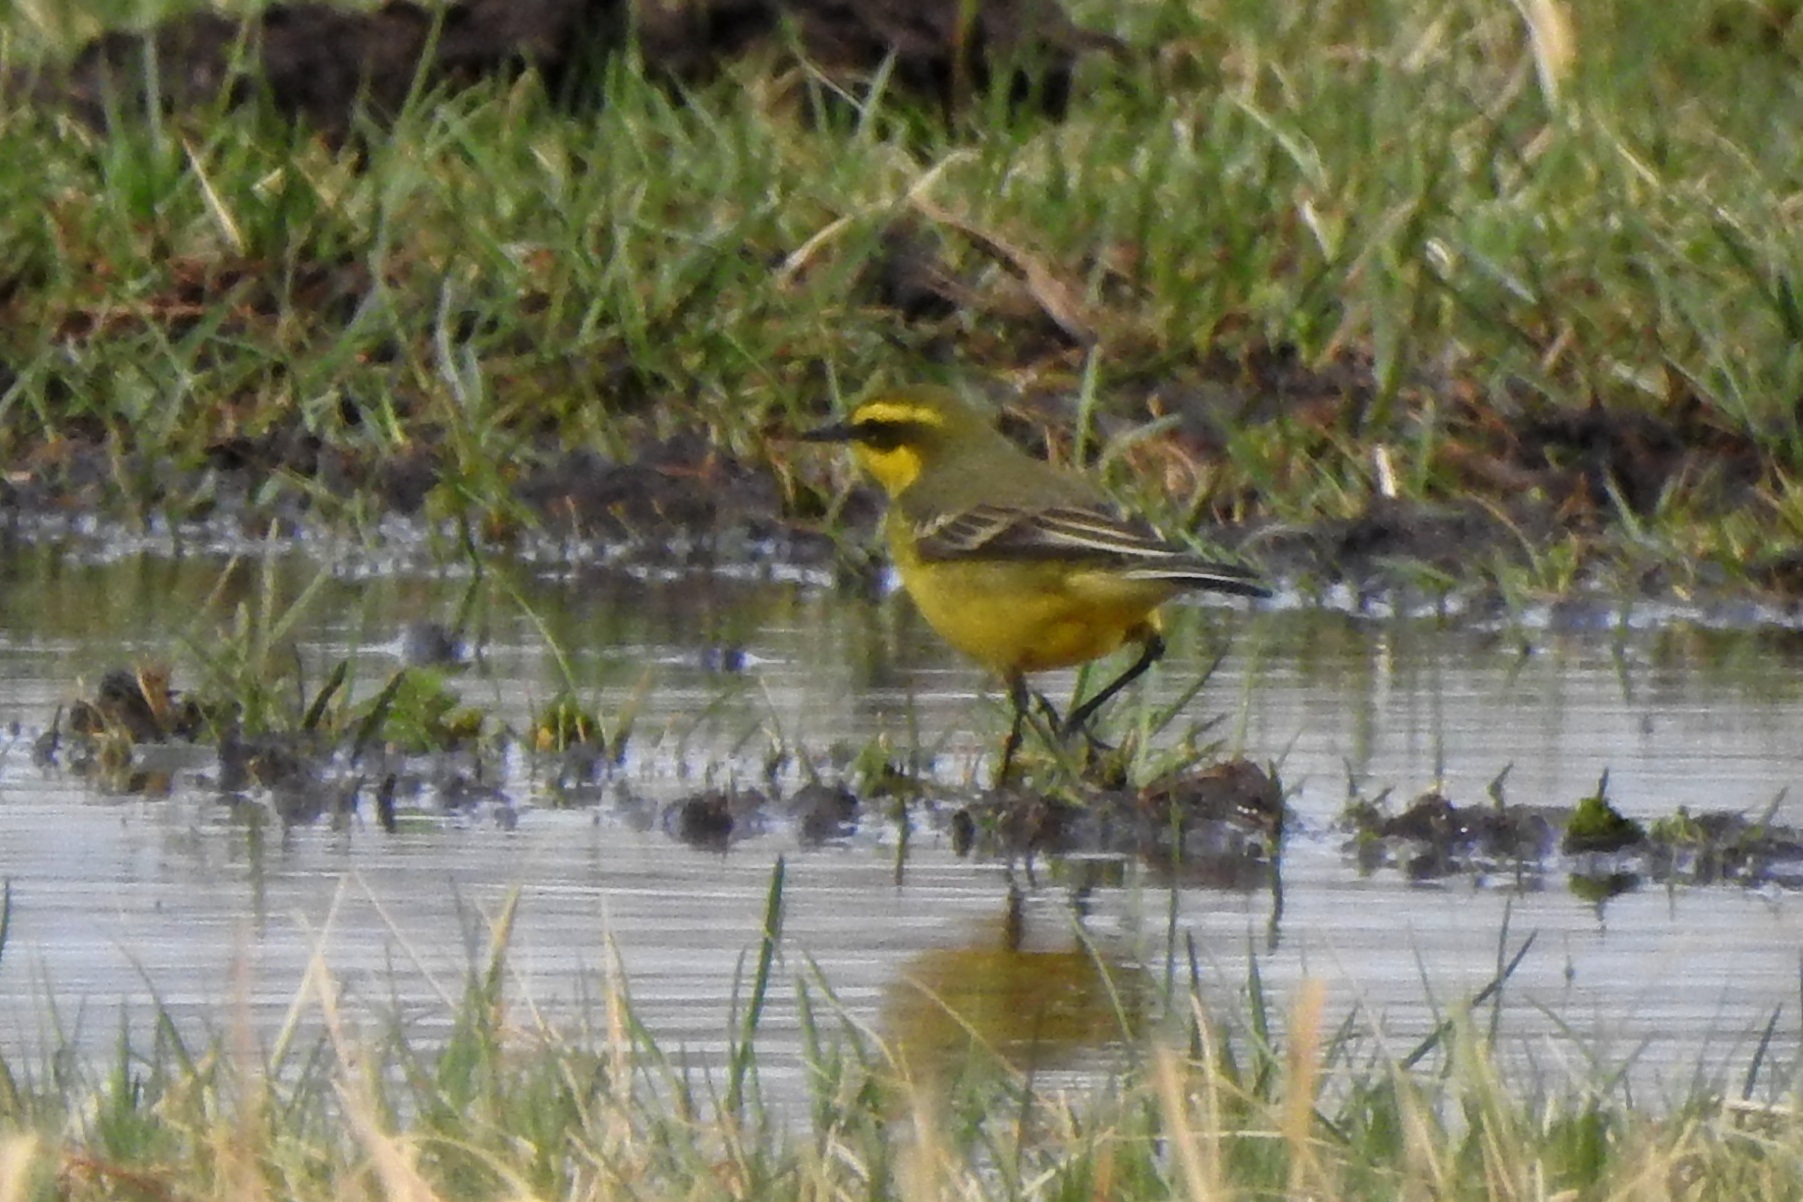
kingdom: Animalia
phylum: Chordata
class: Aves
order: Passeriformes
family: Motacillidae
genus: Motacilla
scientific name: Motacilla tschutschensis
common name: Eastern yellow wagtail
